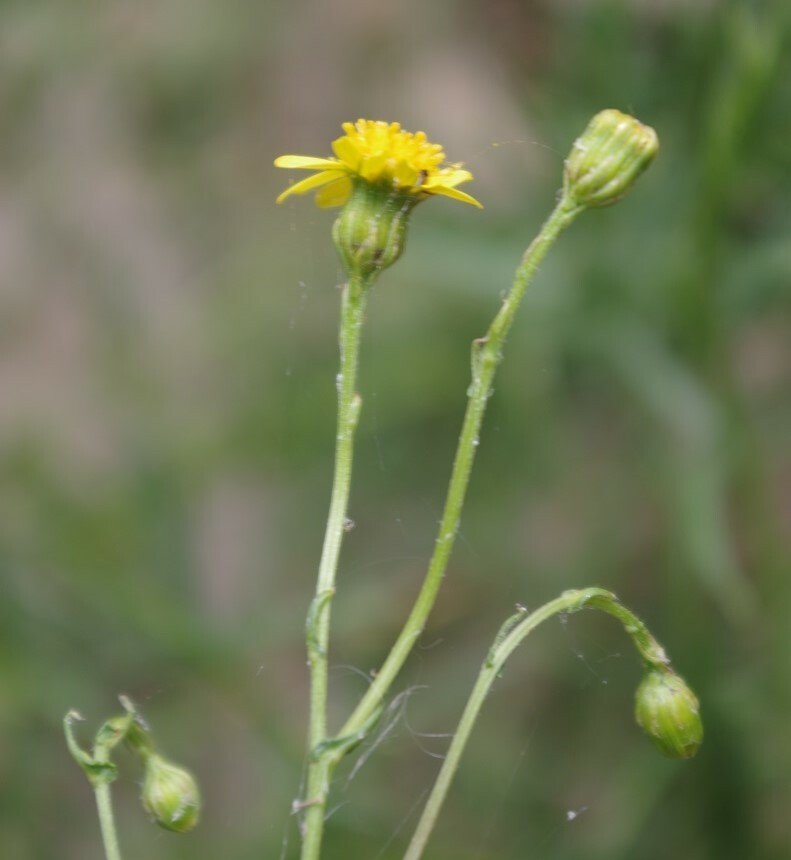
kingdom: Plantae
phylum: Tracheophyta
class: Magnoliopsida
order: Asterales
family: Asteraceae
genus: Senecio
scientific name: Senecio inaequidens
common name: Narrow-leaved ragwort
